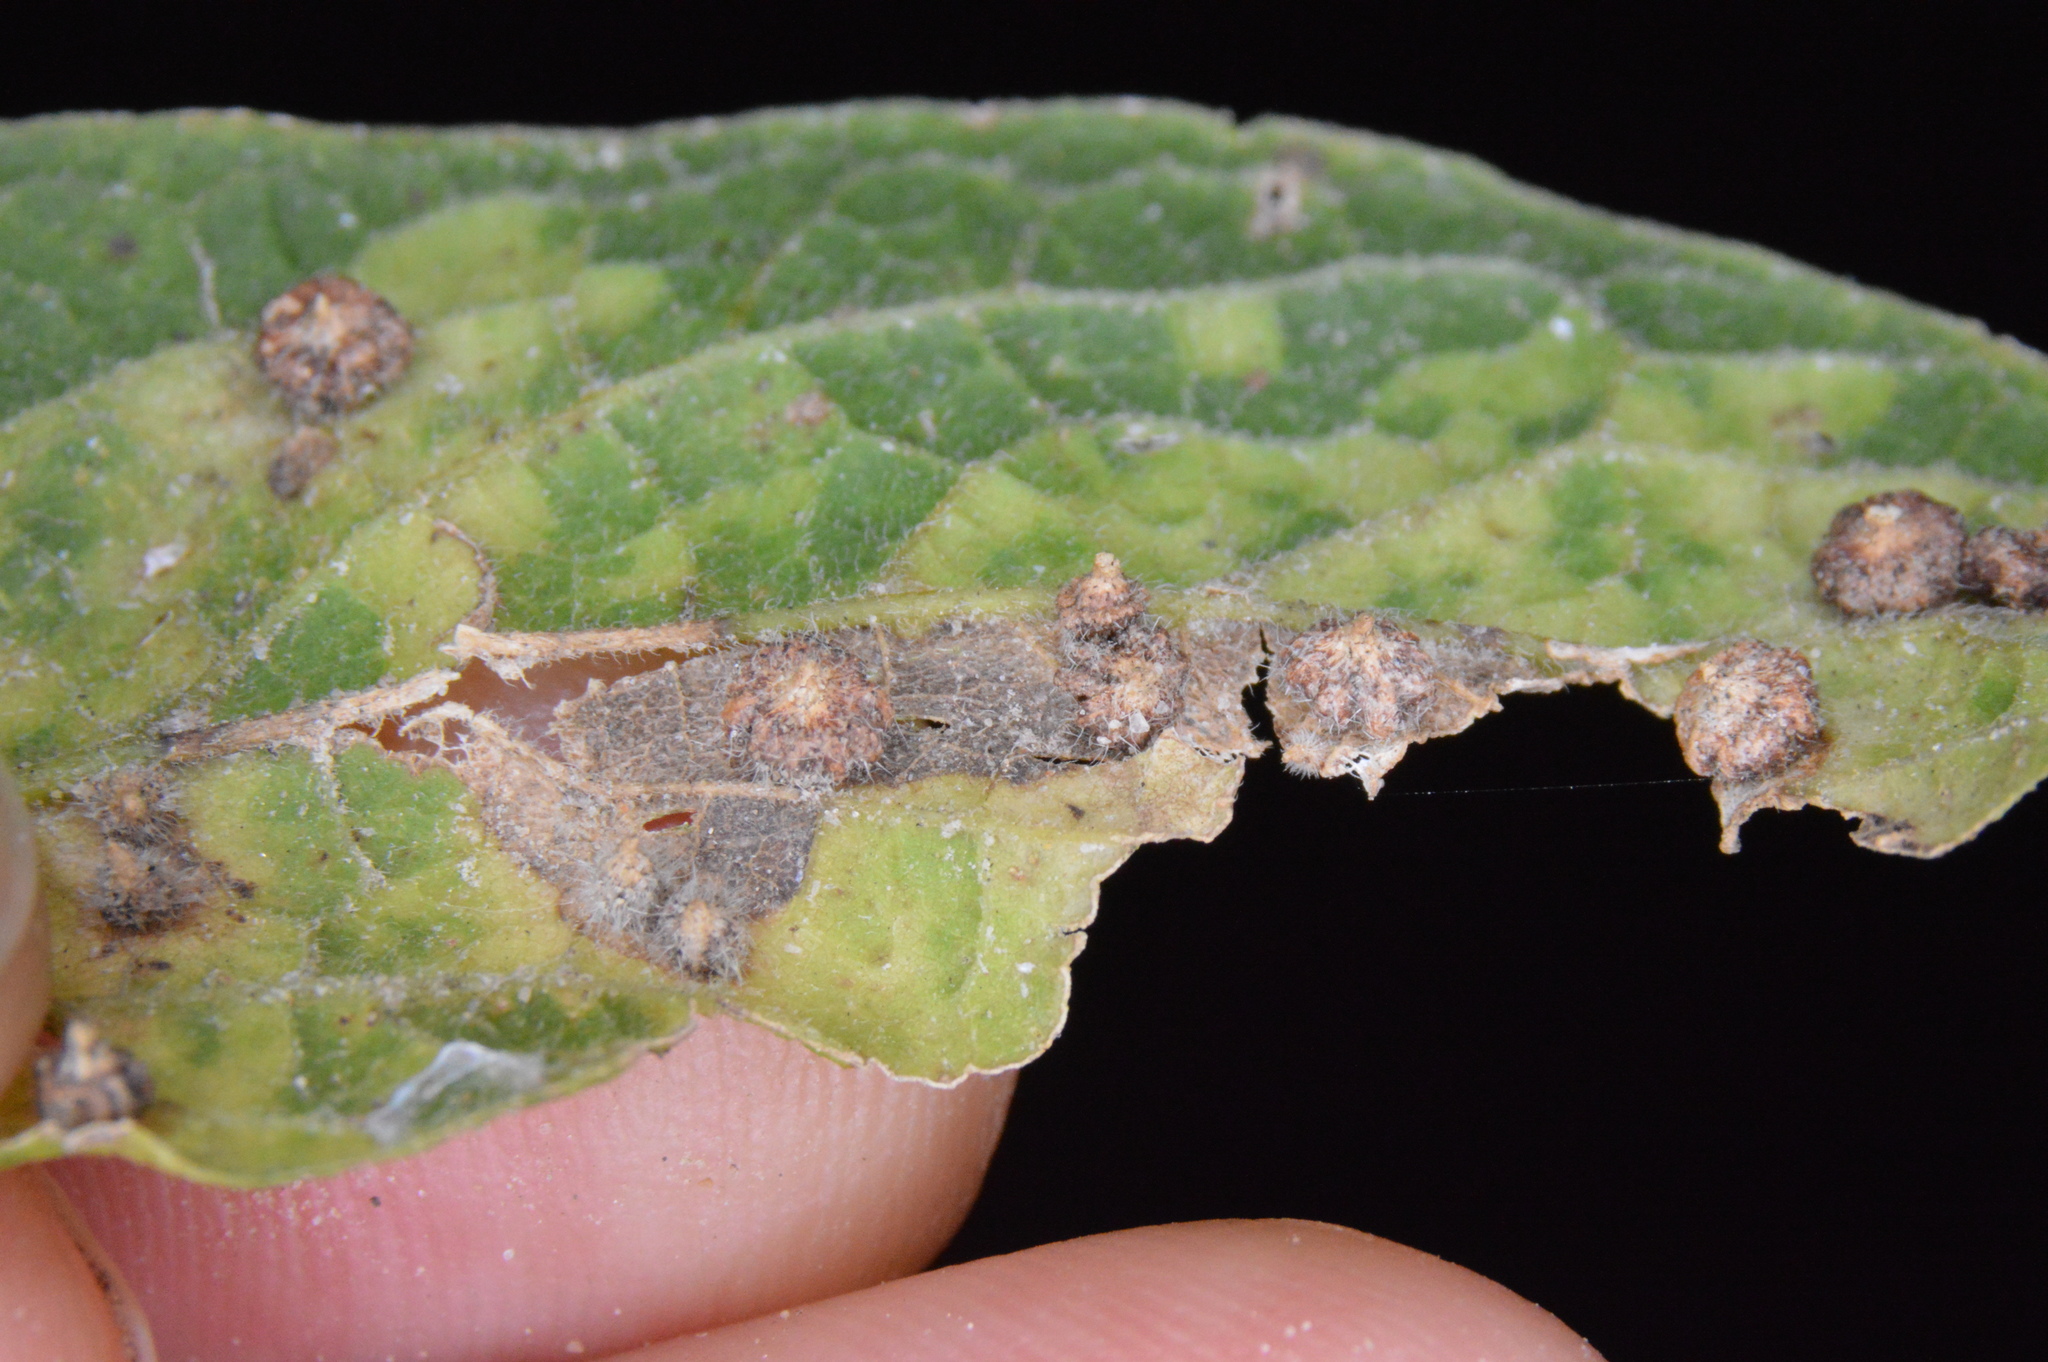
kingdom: Animalia
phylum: Arthropoda
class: Insecta
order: Diptera
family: Cecidomyiidae
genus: Celticecis
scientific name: Celticecis capsularis
